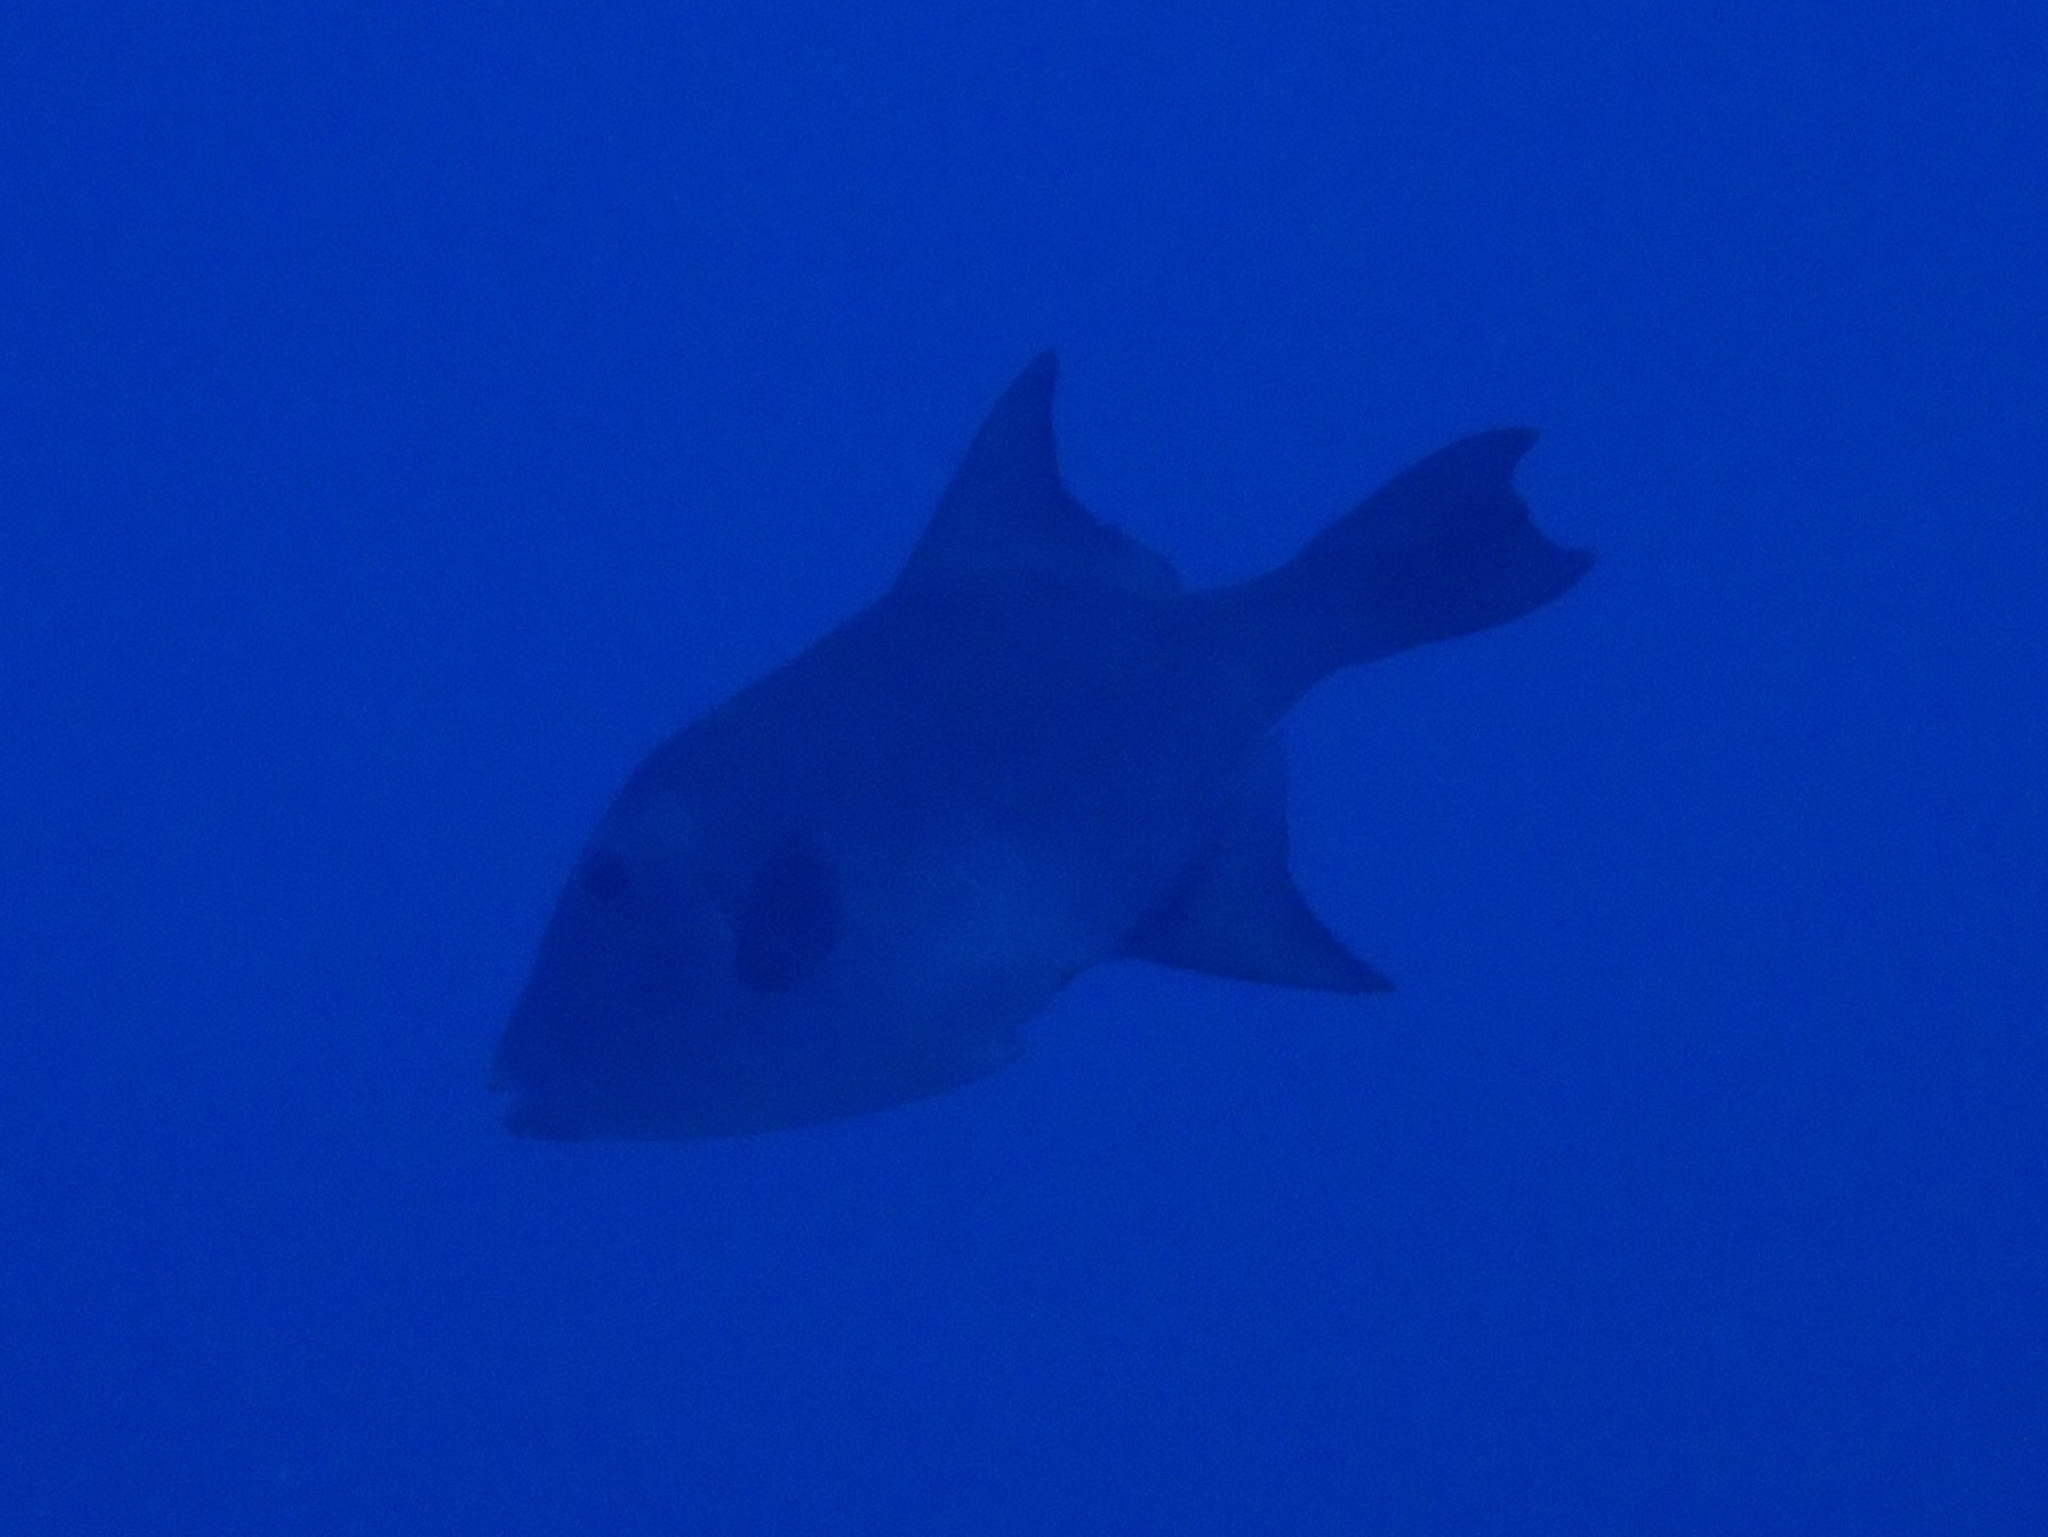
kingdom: Animalia
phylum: Chordata
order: Tetraodontiformes
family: Balistidae
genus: Canthidermis
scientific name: Canthidermis sufflamen
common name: Ocean triggerfish
